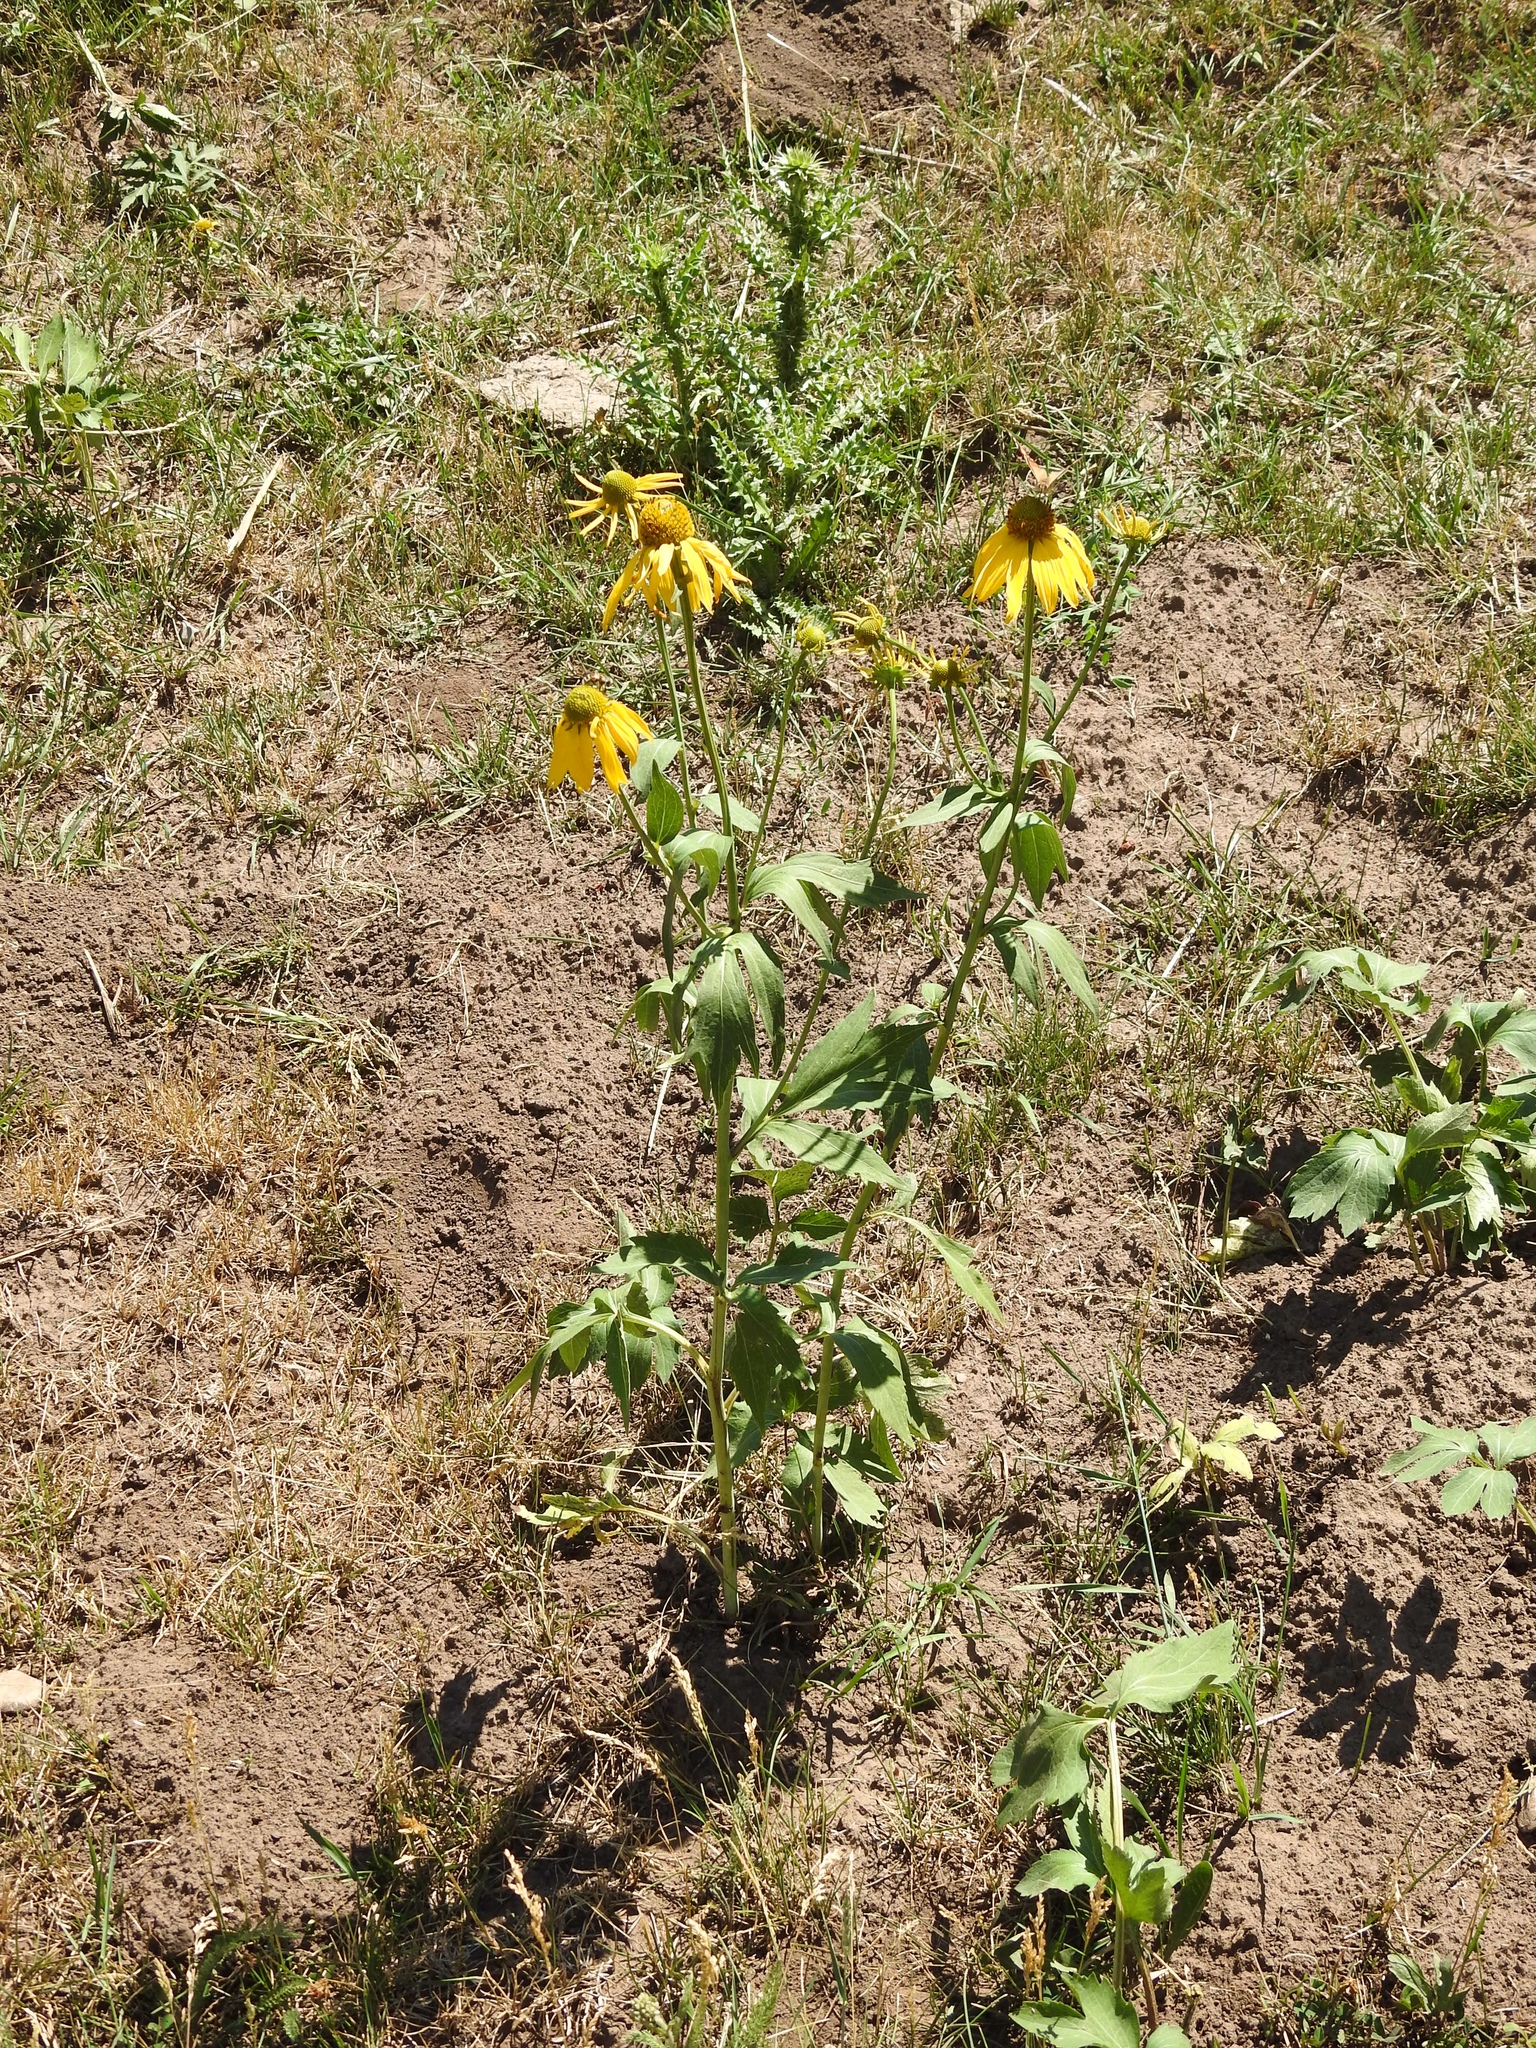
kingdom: Plantae
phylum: Tracheophyta
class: Magnoliopsida
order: Asterales
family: Asteraceae
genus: Rudbeckia
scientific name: Rudbeckia laciniata
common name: Coneflower
